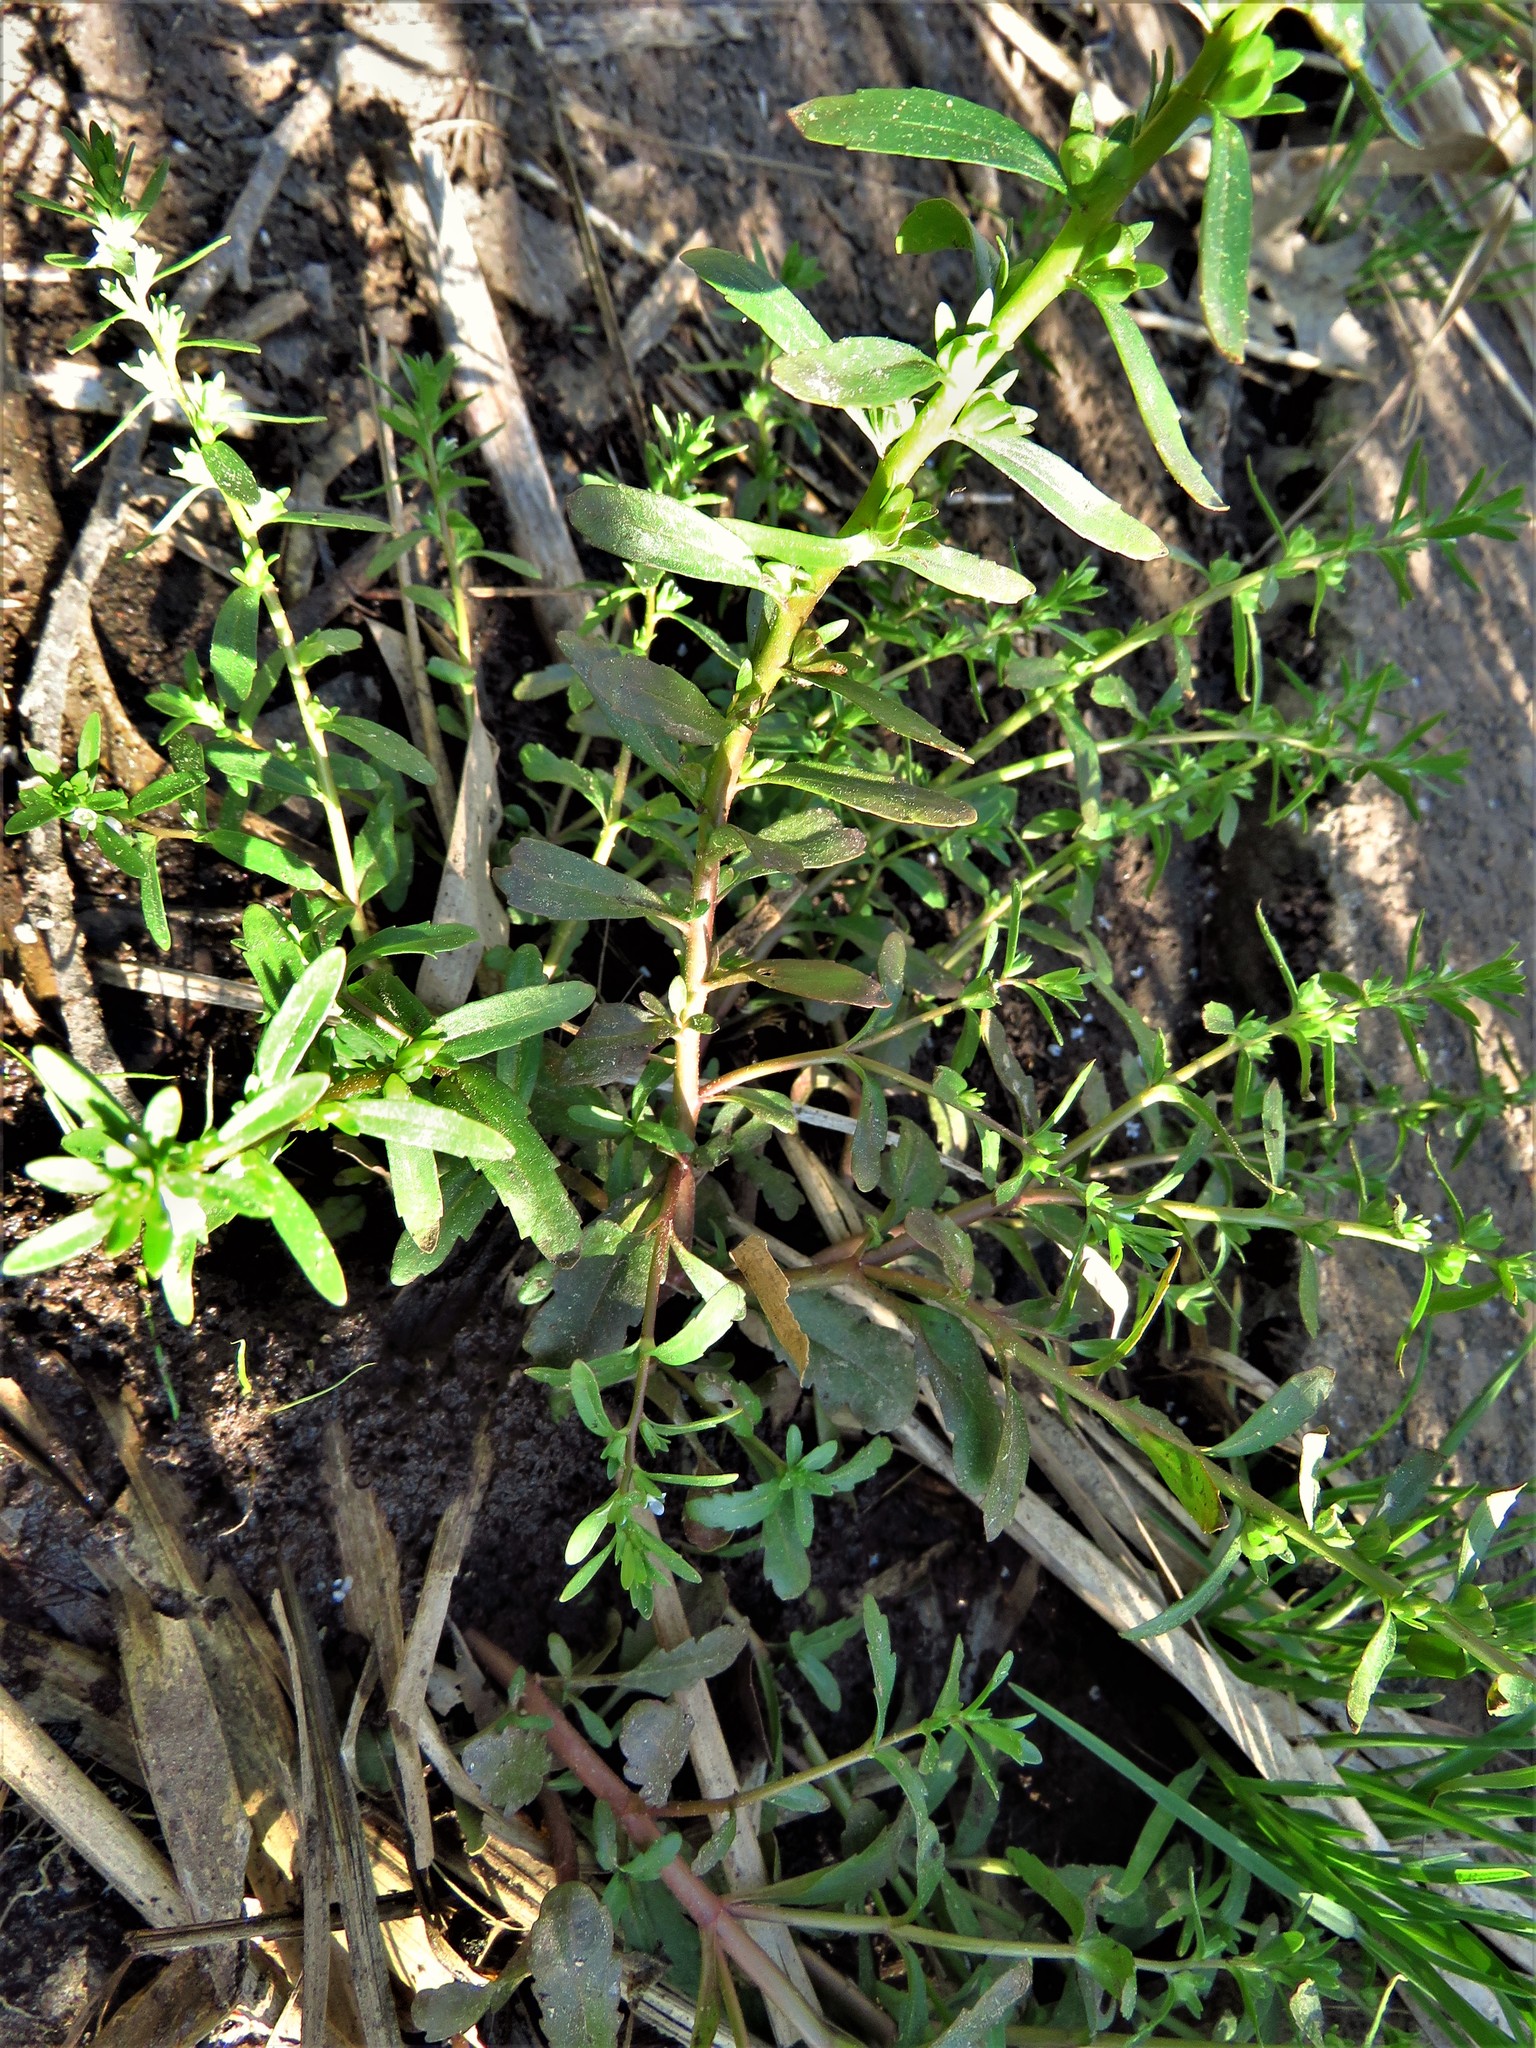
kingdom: Plantae
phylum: Tracheophyta
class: Magnoliopsida
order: Lamiales
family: Plantaginaceae
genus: Veronica
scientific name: Veronica peregrina
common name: Neckweed
